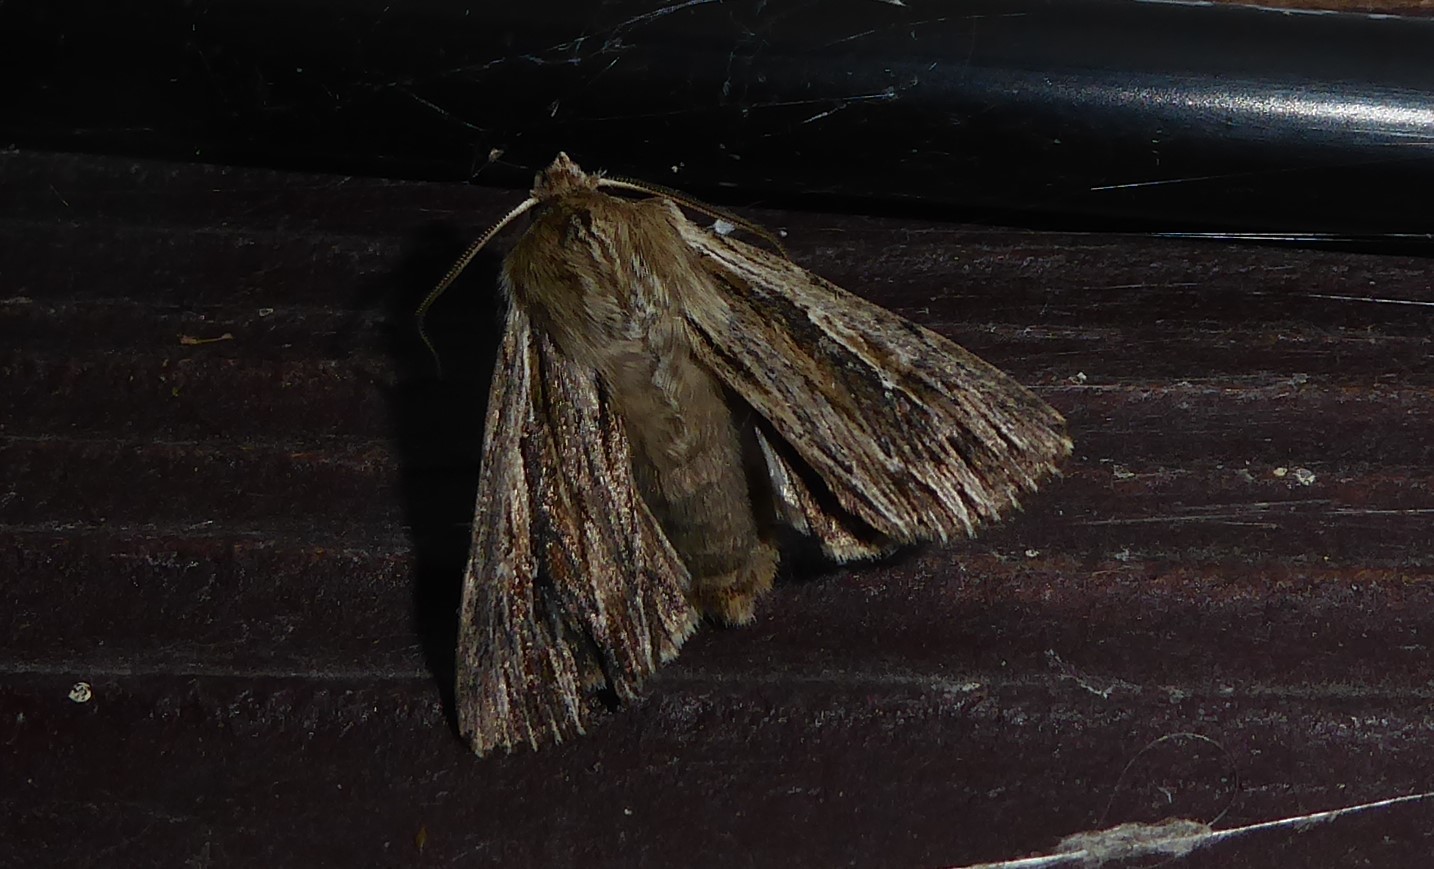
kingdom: Animalia
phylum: Arthropoda
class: Insecta
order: Lepidoptera
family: Noctuidae
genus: Persectania
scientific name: Persectania aversa
